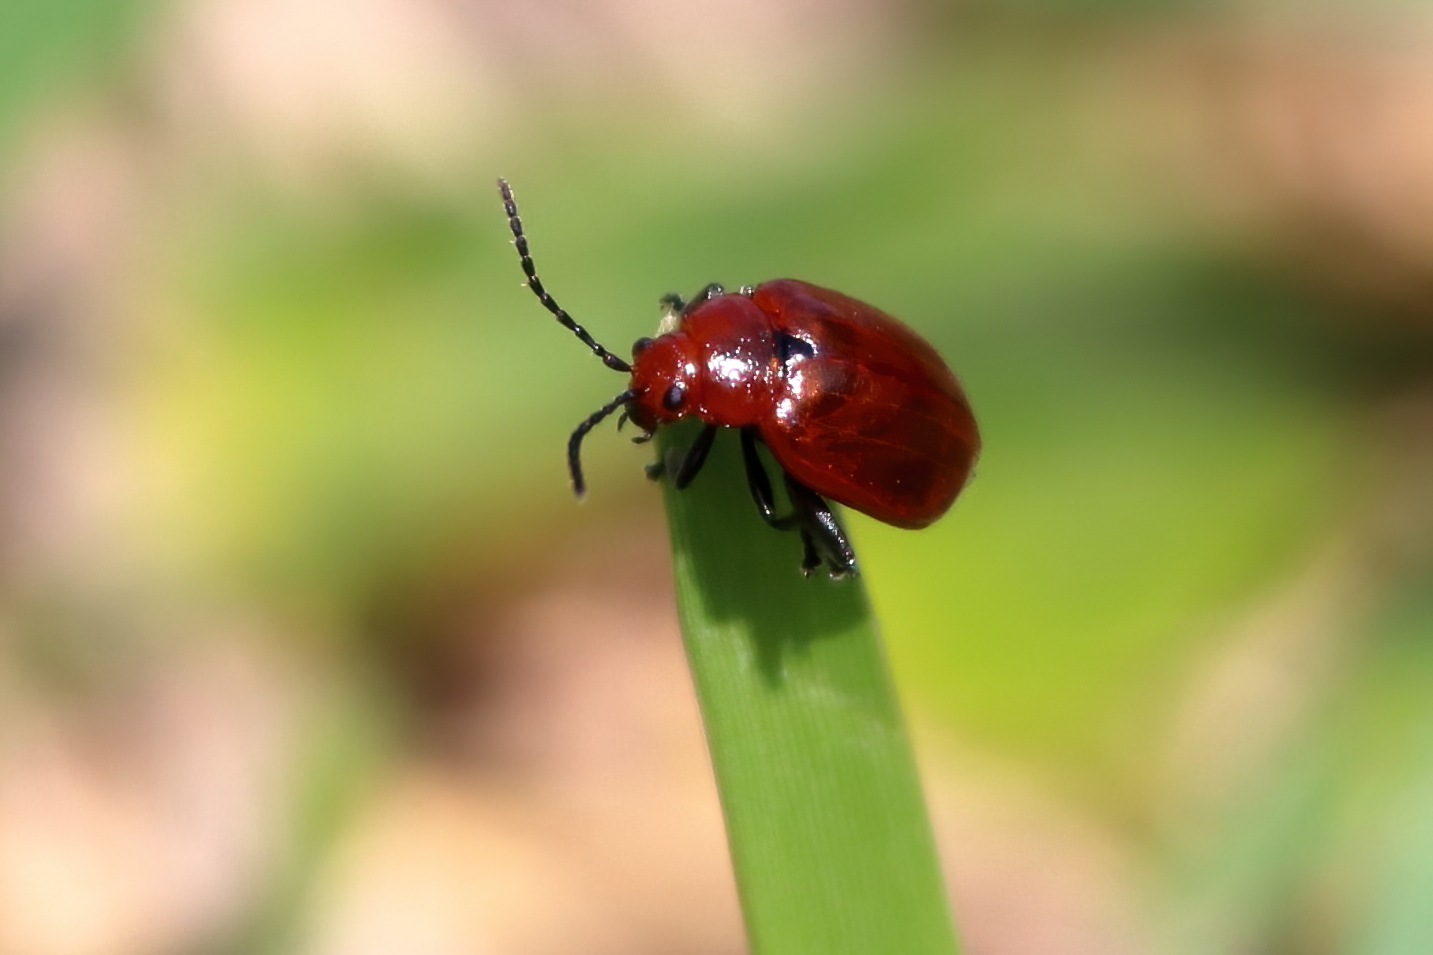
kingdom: Animalia
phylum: Arthropoda
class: Insecta
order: Coleoptera
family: Chrysomelidae
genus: Strabala
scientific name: Strabala rufa
